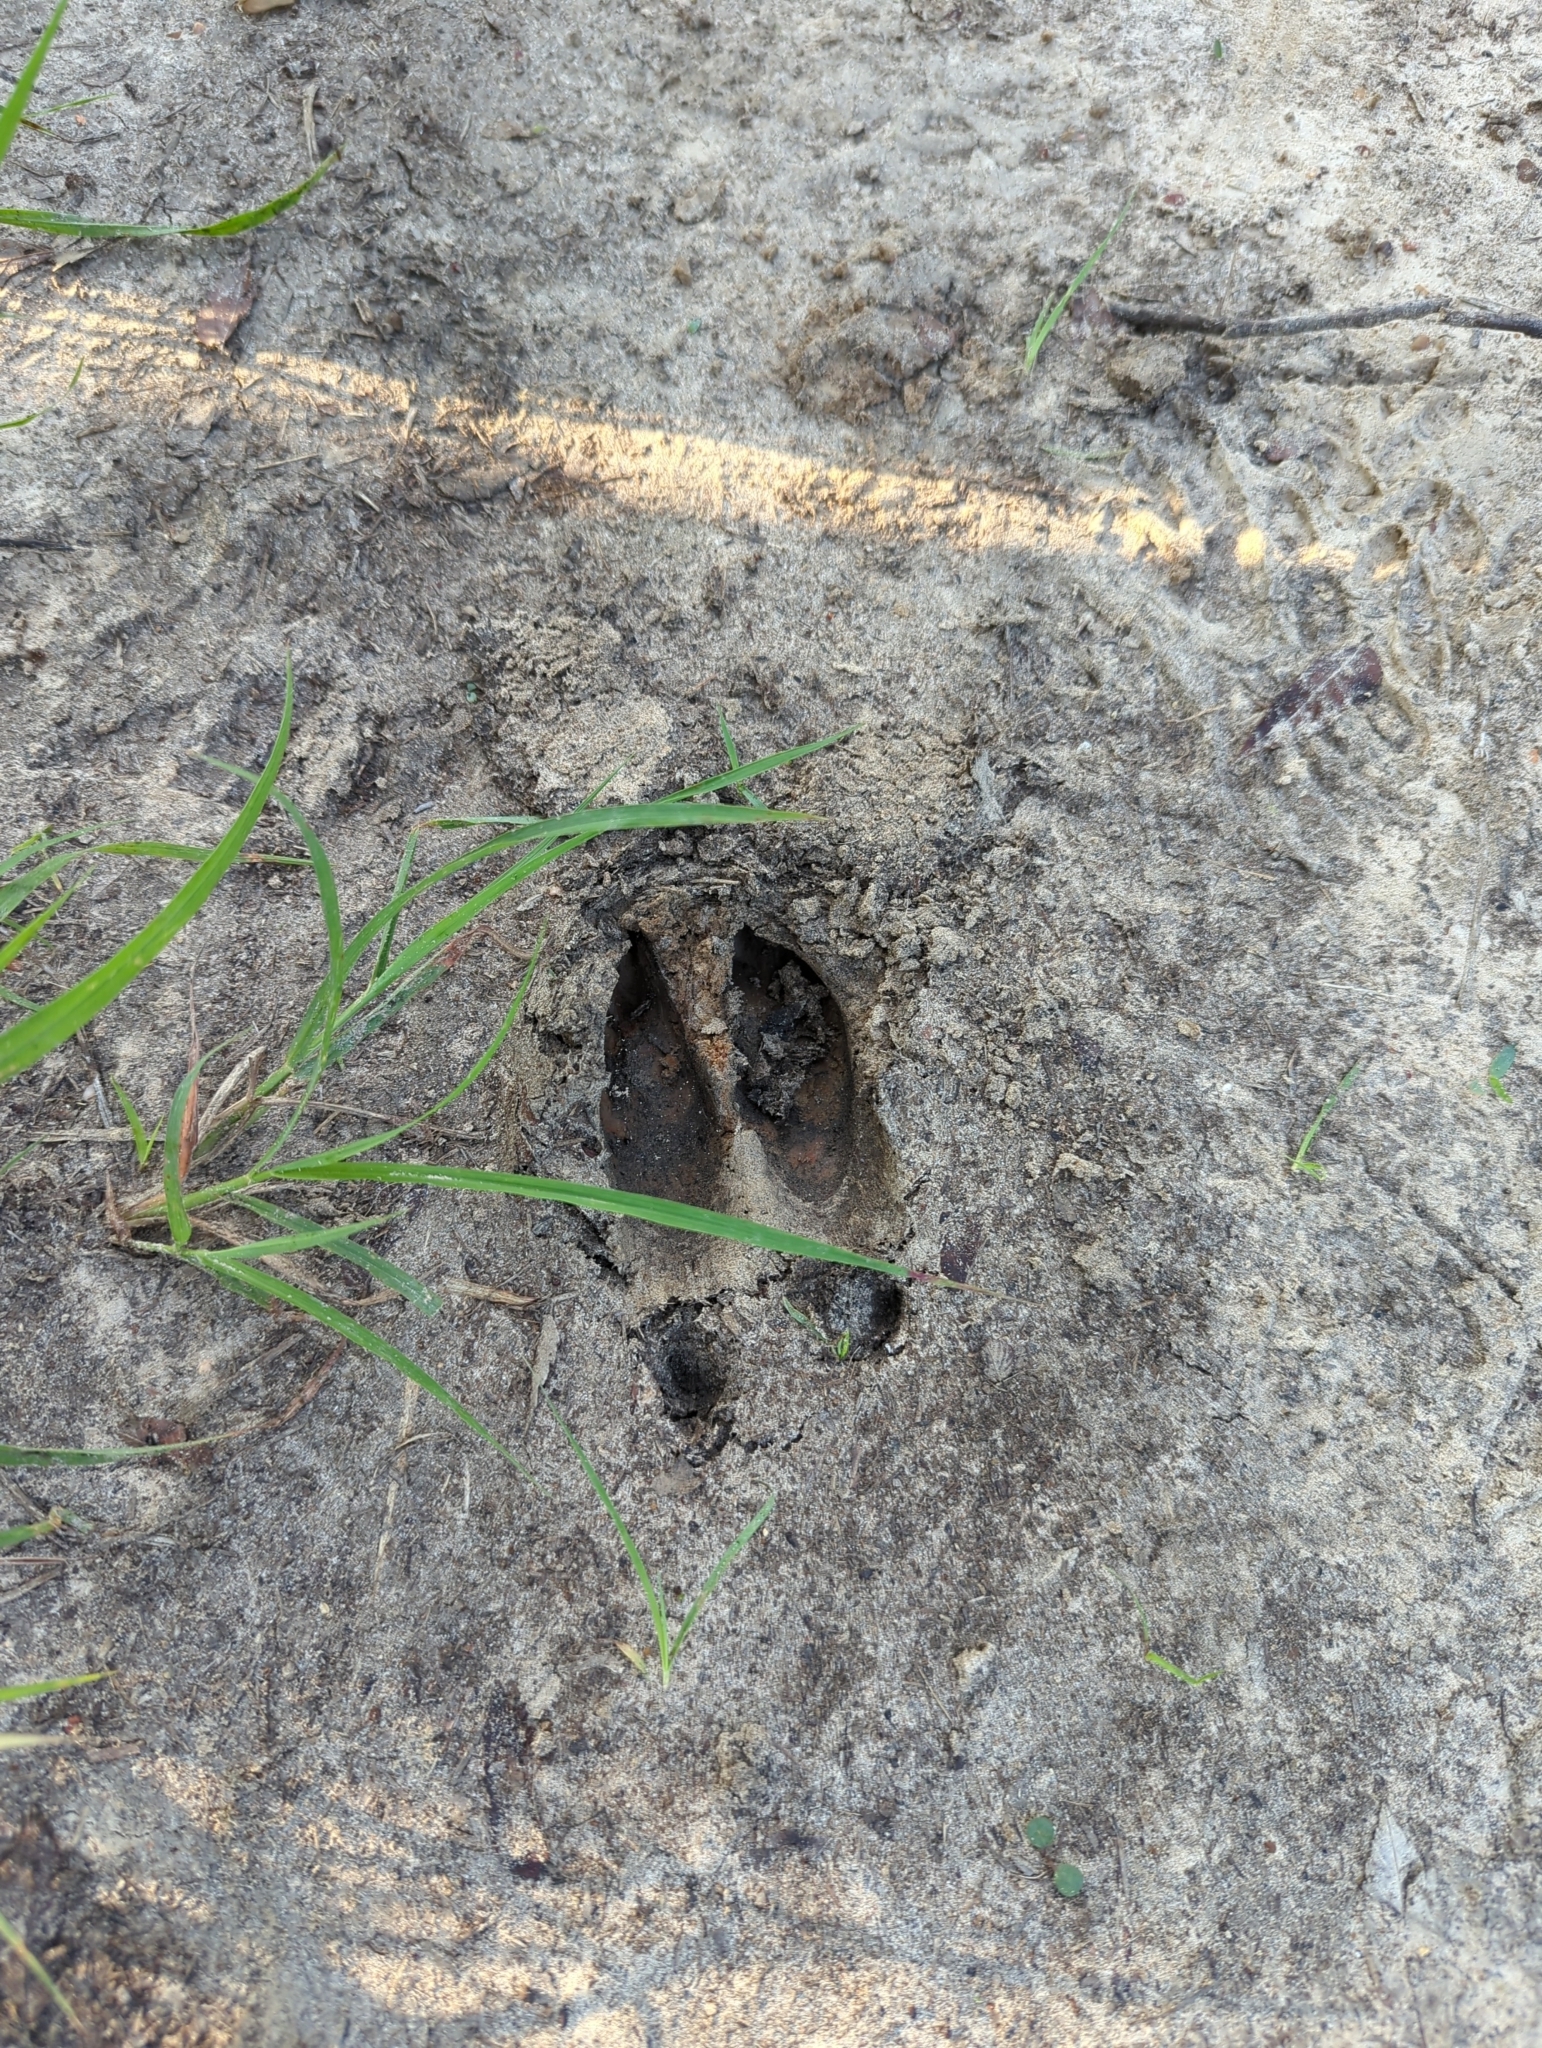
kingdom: Animalia
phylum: Chordata
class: Mammalia
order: Artiodactyla
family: Cervidae
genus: Odocoileus
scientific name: Odocoileus virginianus
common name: White-tailed deer
